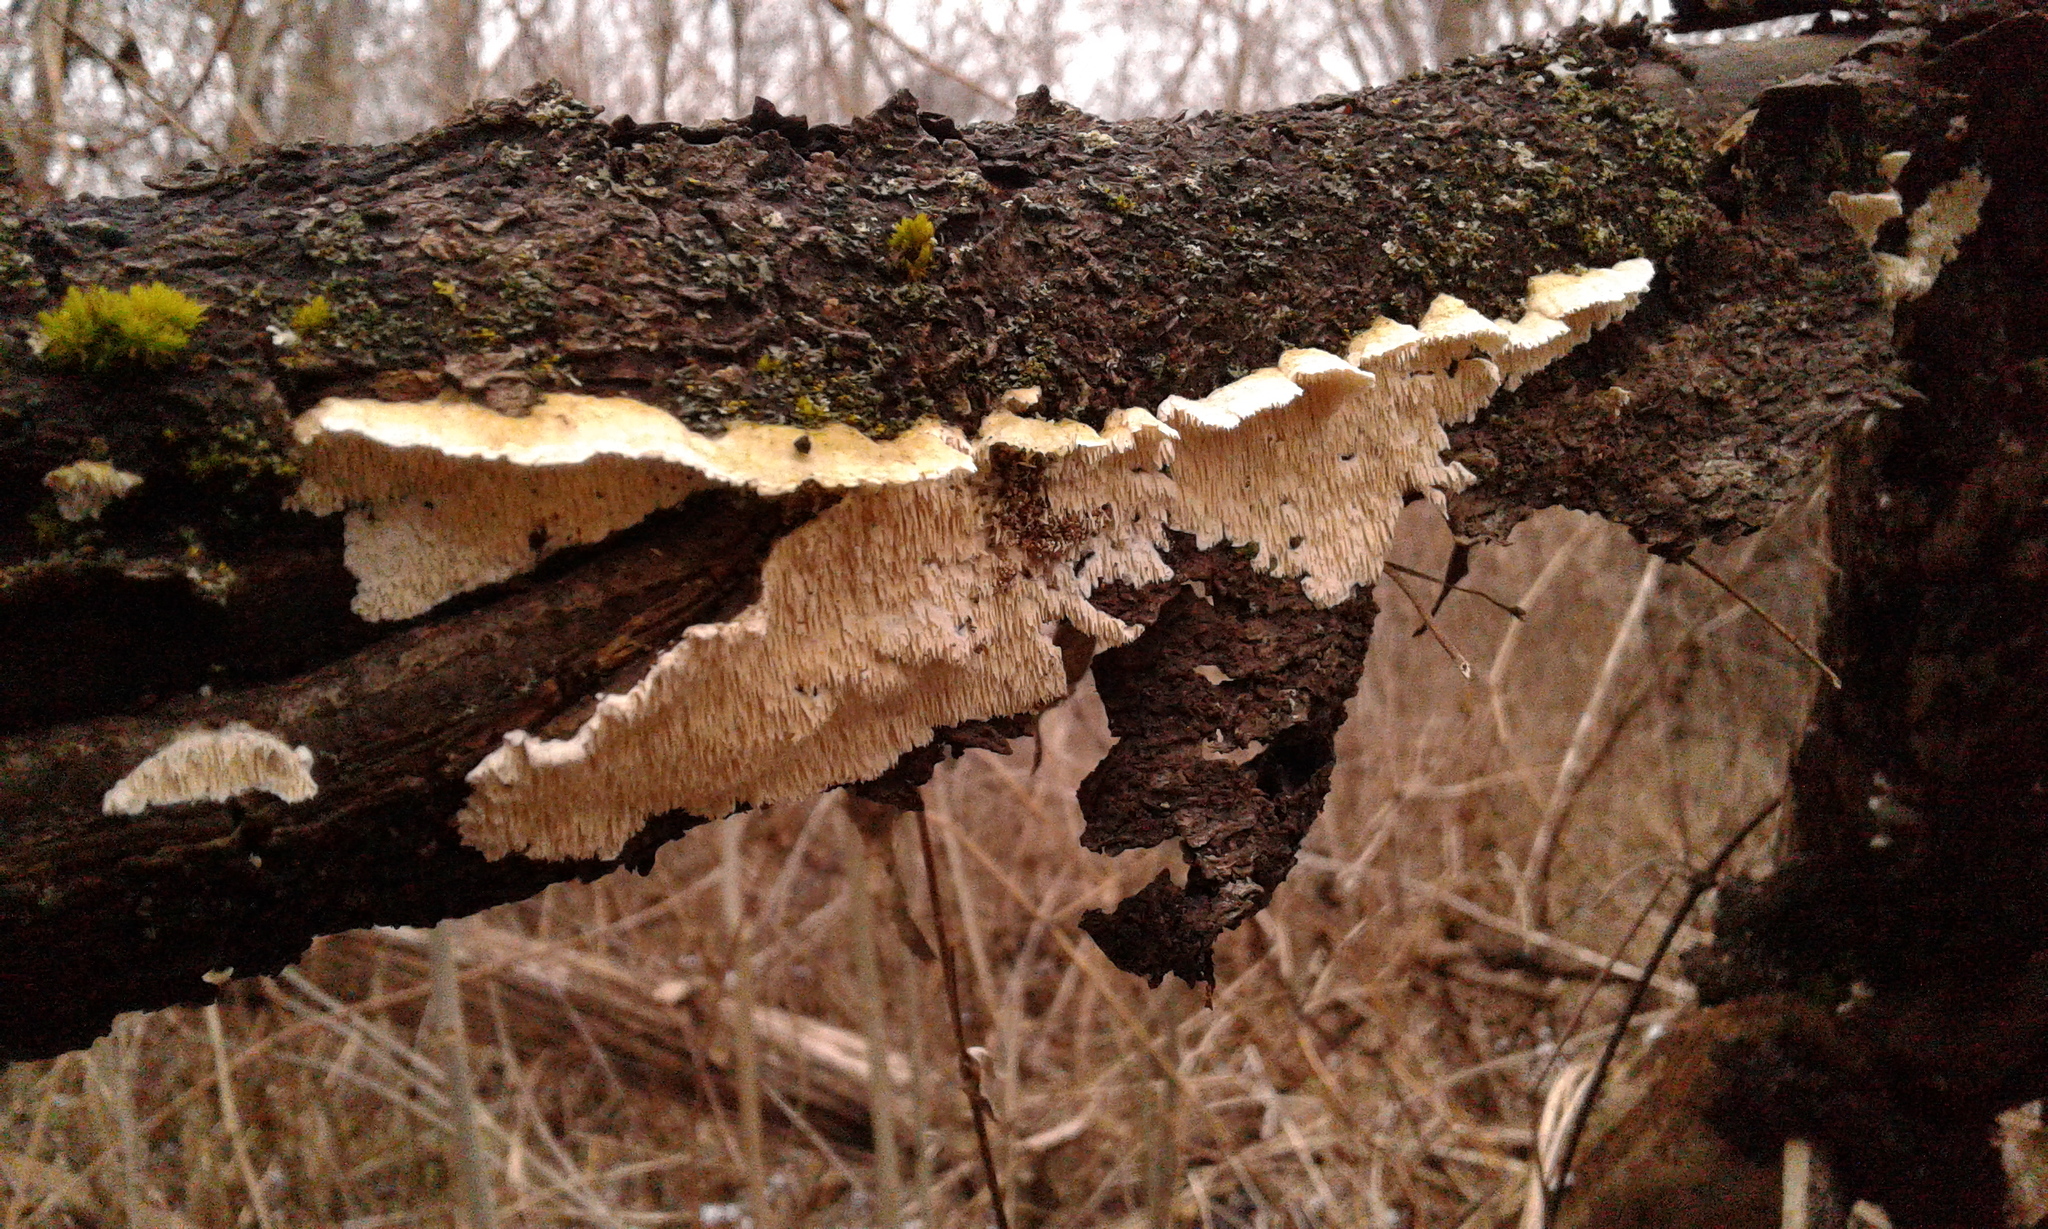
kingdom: Fungi
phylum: Basidiomycota
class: Agaricomycetes
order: Polyporales
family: Irpicaceae
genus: Irpex
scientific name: Irpex lacteus
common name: Milk-white toothed polypore
